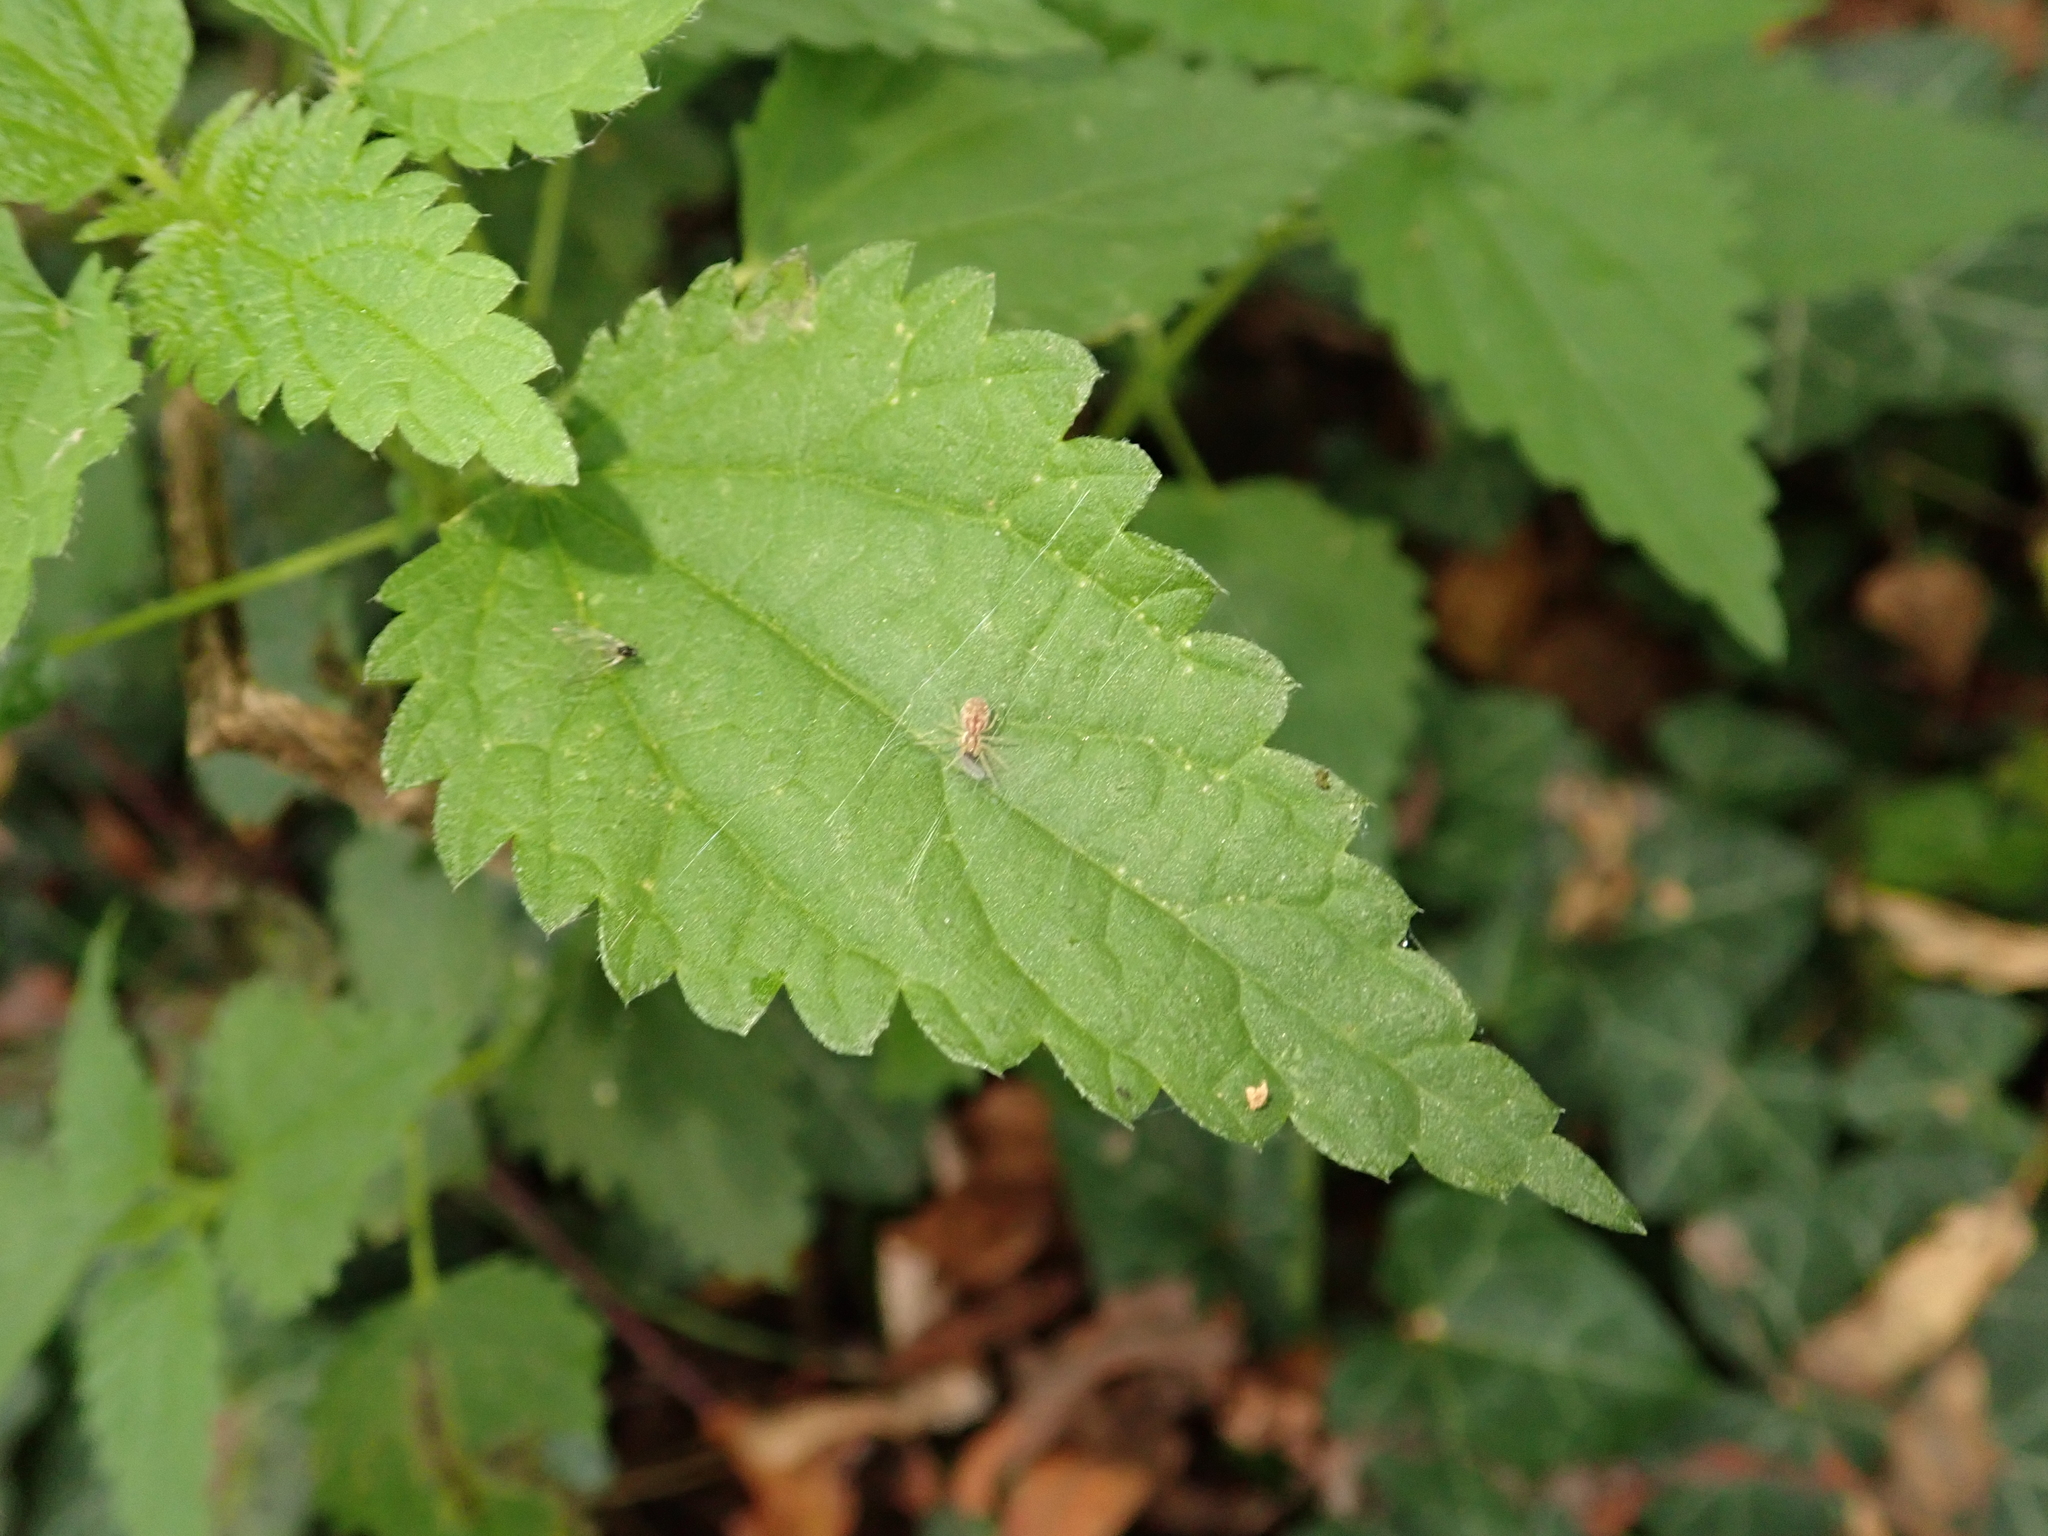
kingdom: Plantae
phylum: Tracheophyta
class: Magnoliopsida
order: Rosales
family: Urticaceae
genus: Urtica
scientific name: Urtica dioica
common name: Common nettle
